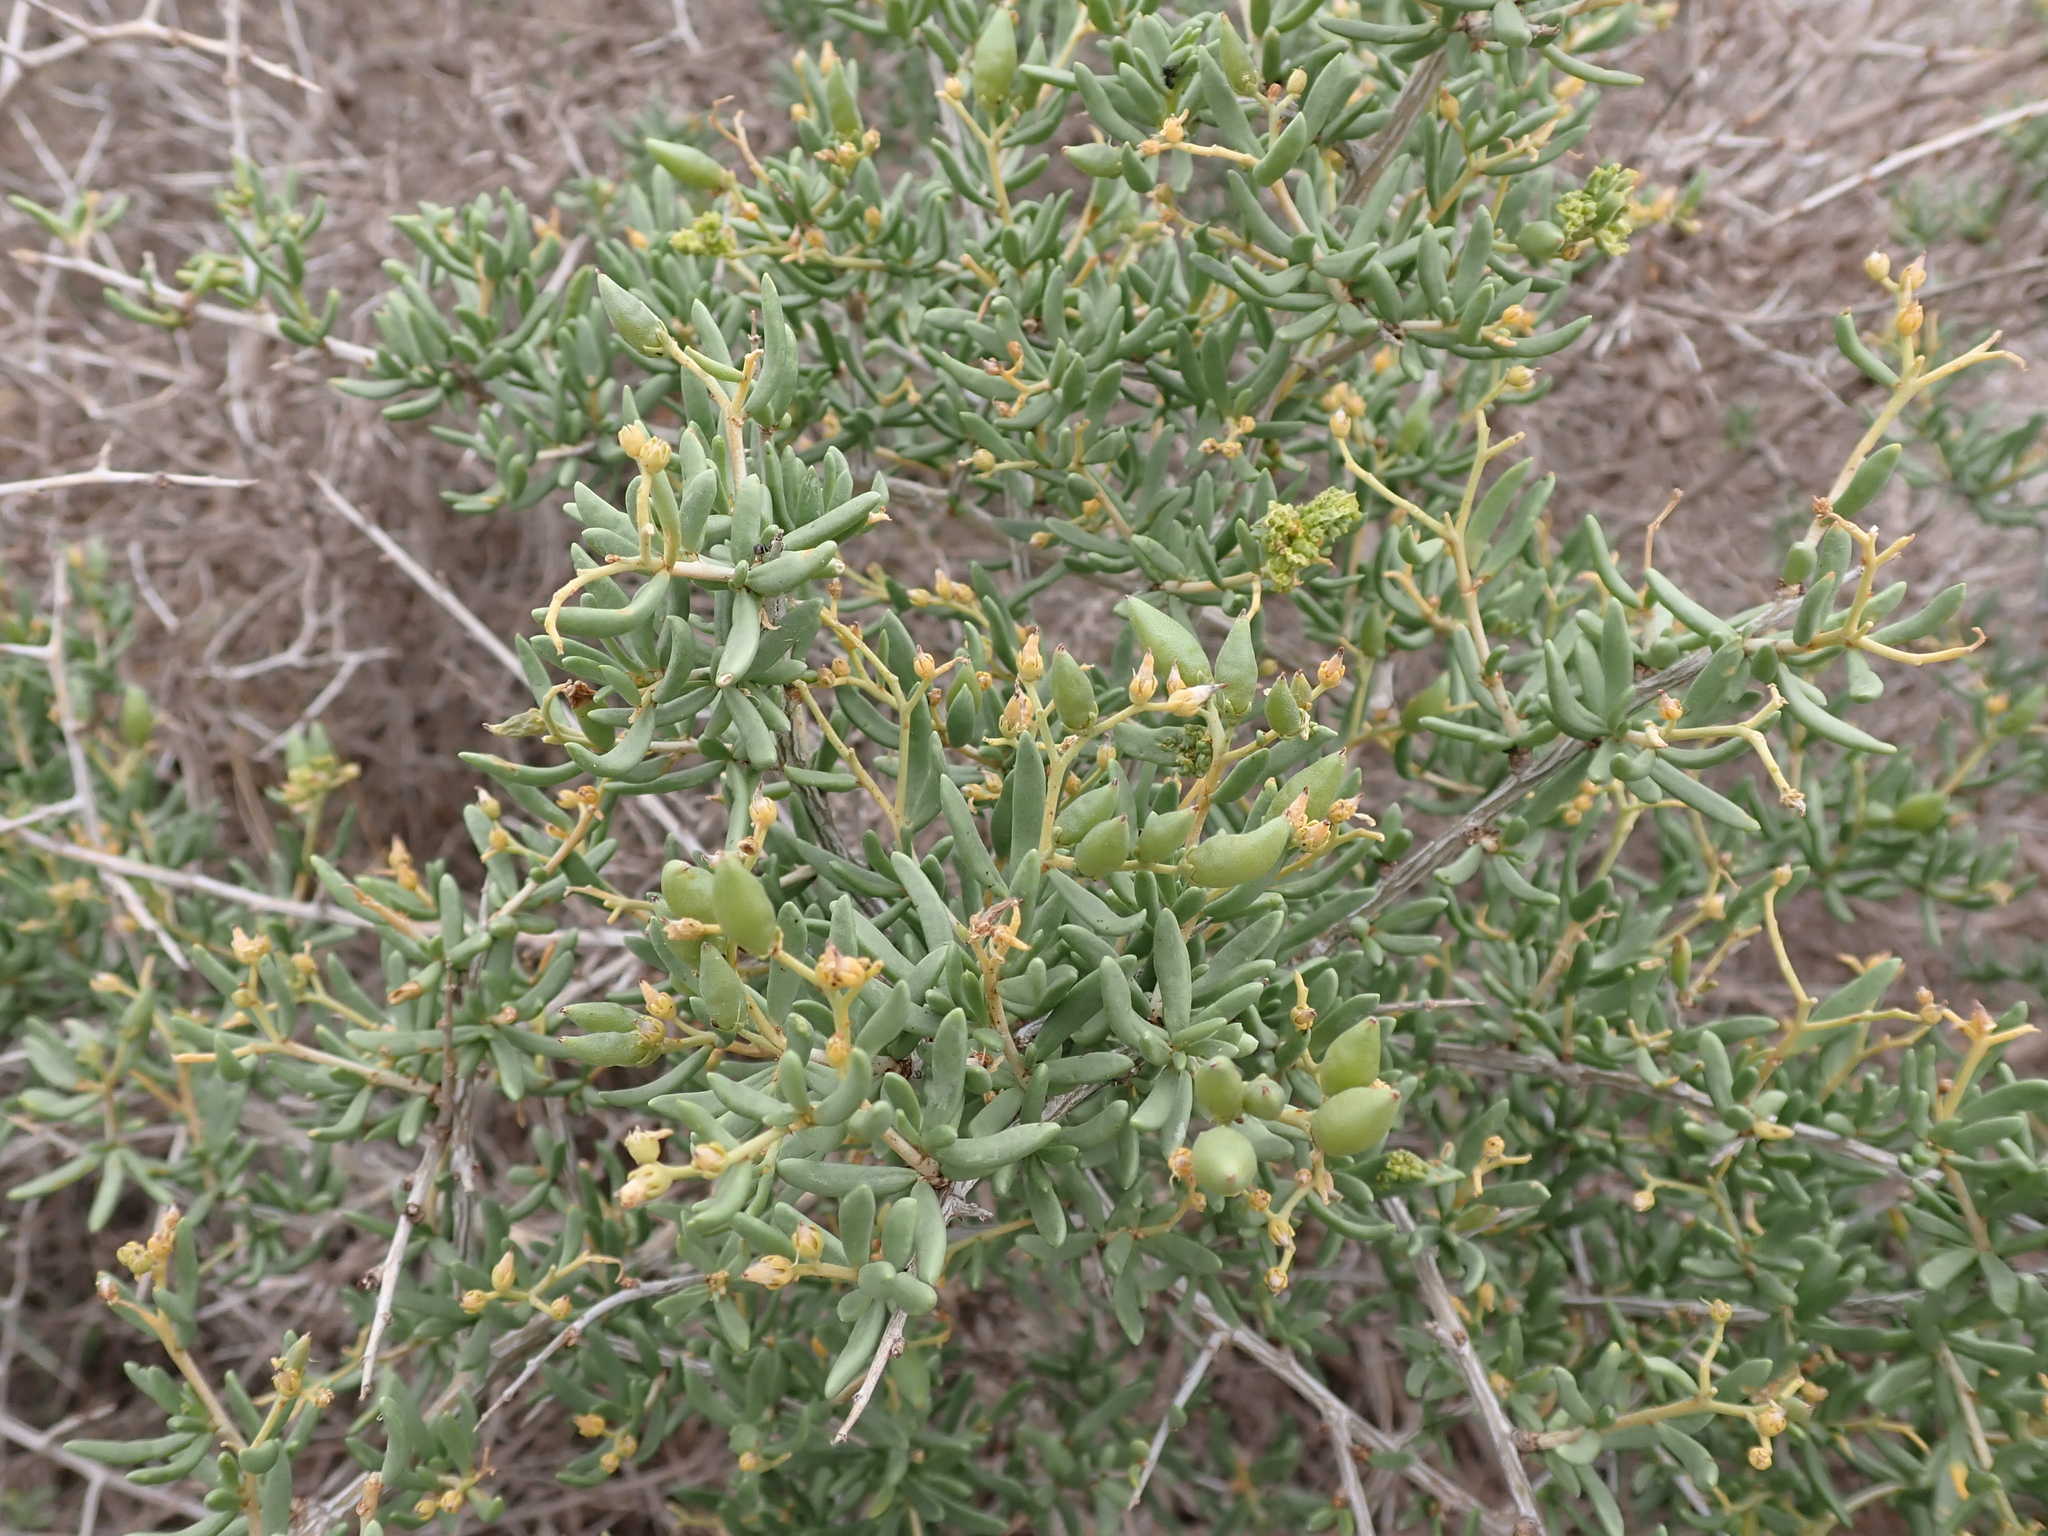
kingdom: Plantae
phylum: Tracheophyta
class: Magnoliopsida
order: Sapindales
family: Nitrariaceae
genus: Nitraria
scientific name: Nitraria billardierei
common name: Dillonbush
